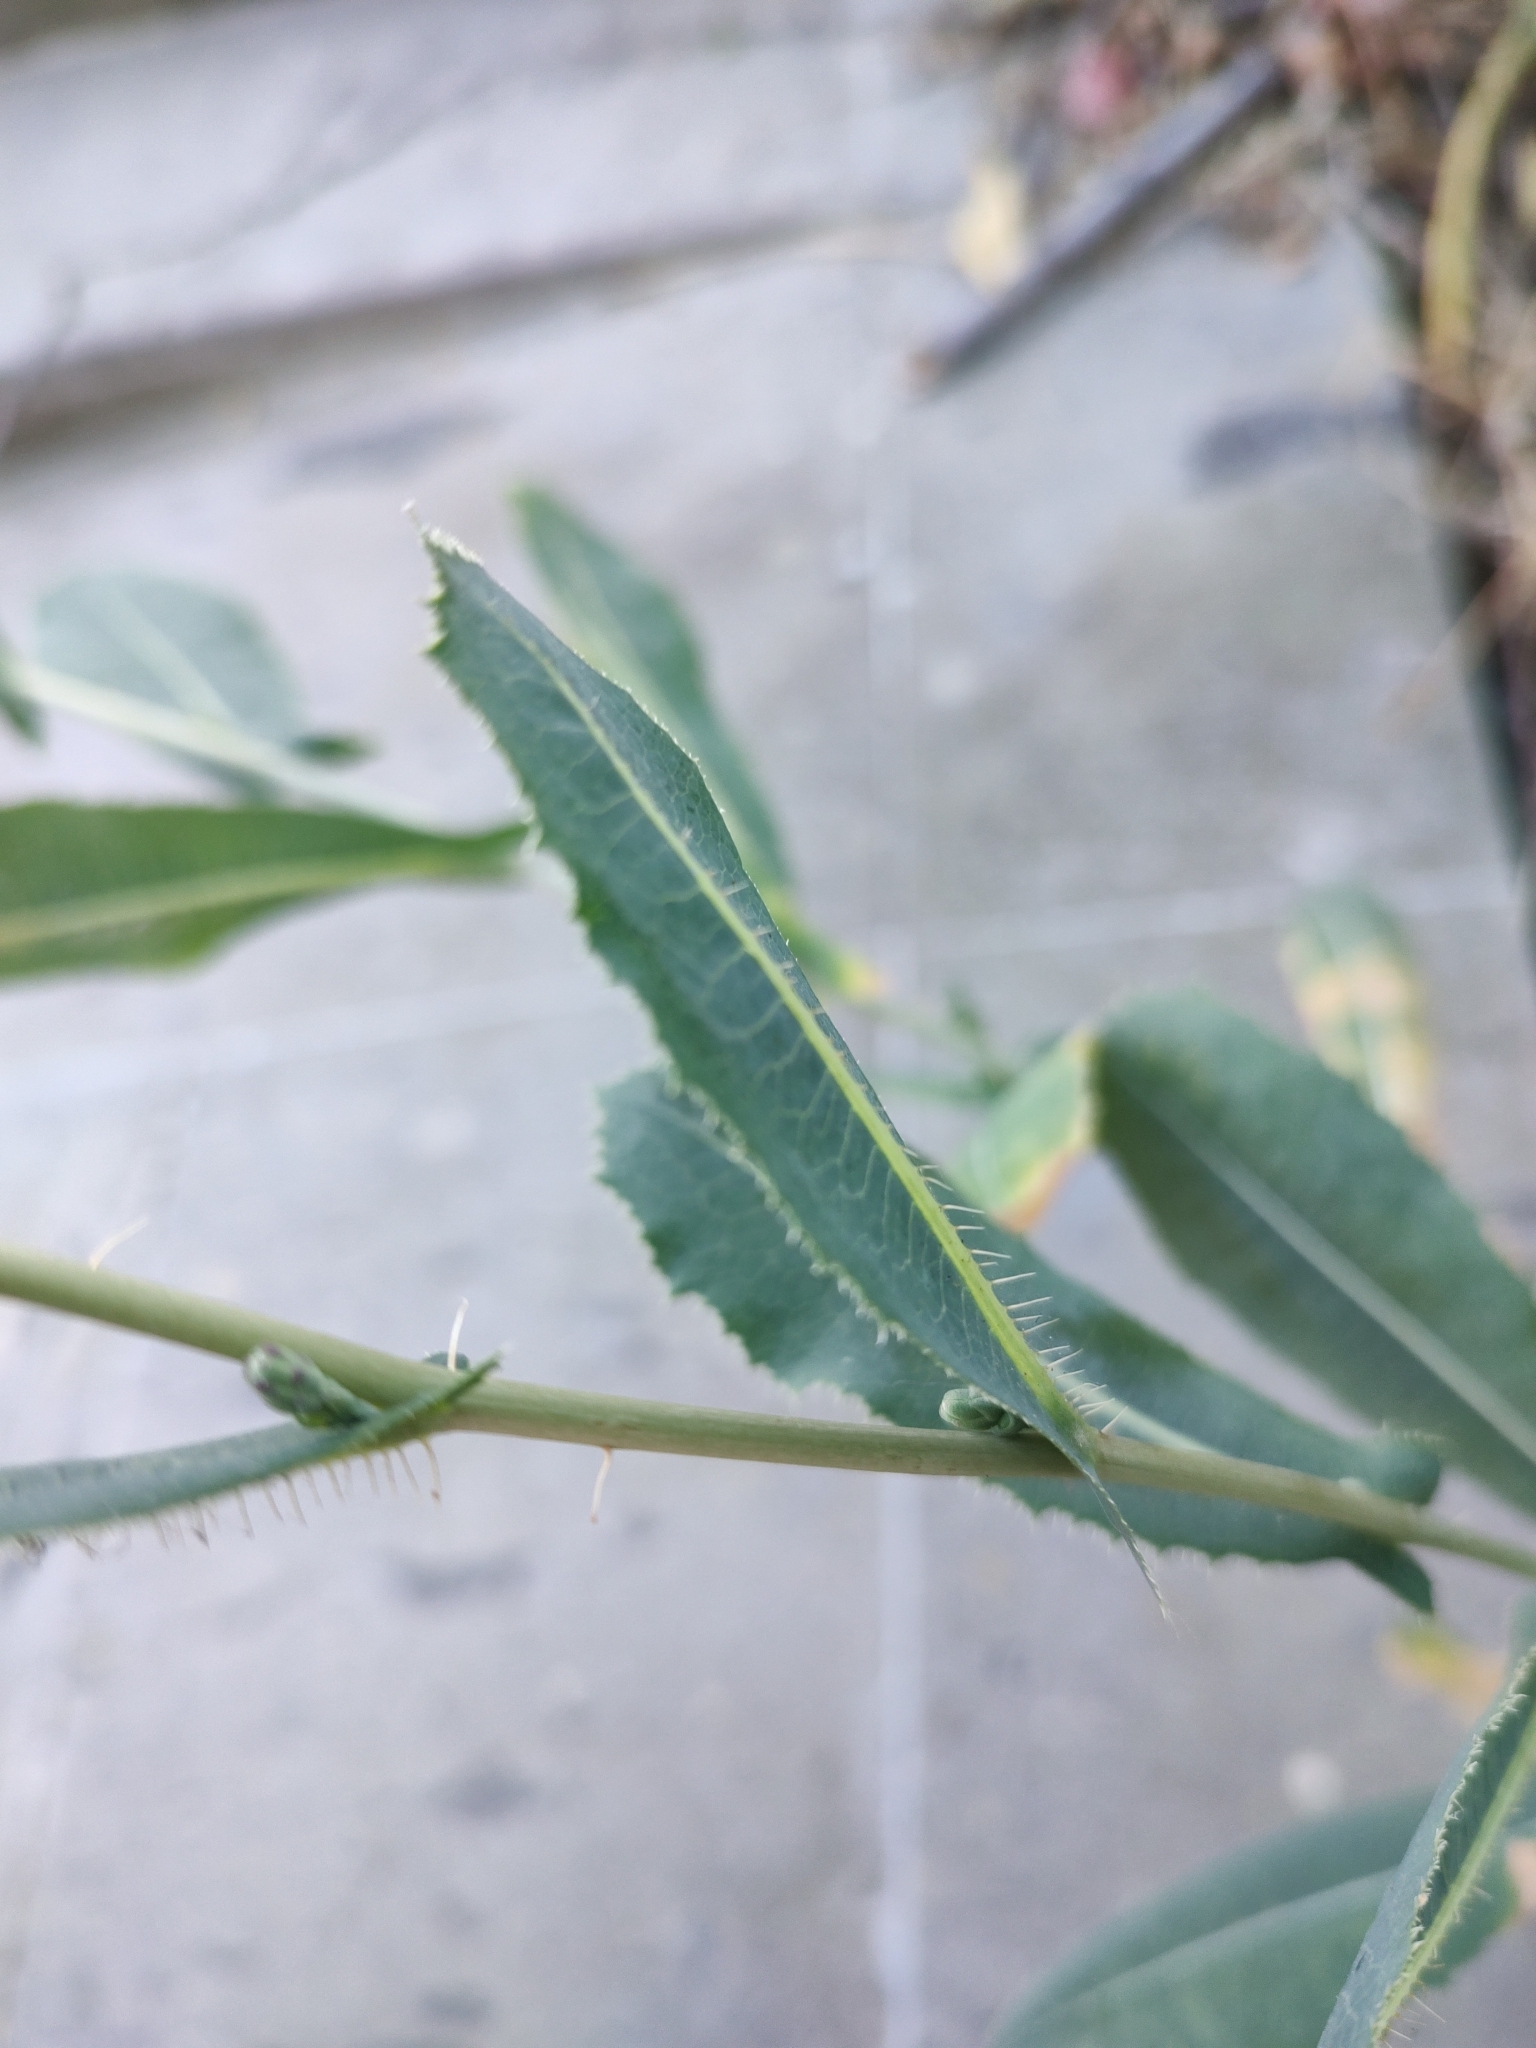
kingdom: Plantae
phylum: Tracheophyta
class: Magnoliopsida
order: Asterales
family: Asteraceae
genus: Lactuca
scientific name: Lactuca serriola
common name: Prickly lettuce
